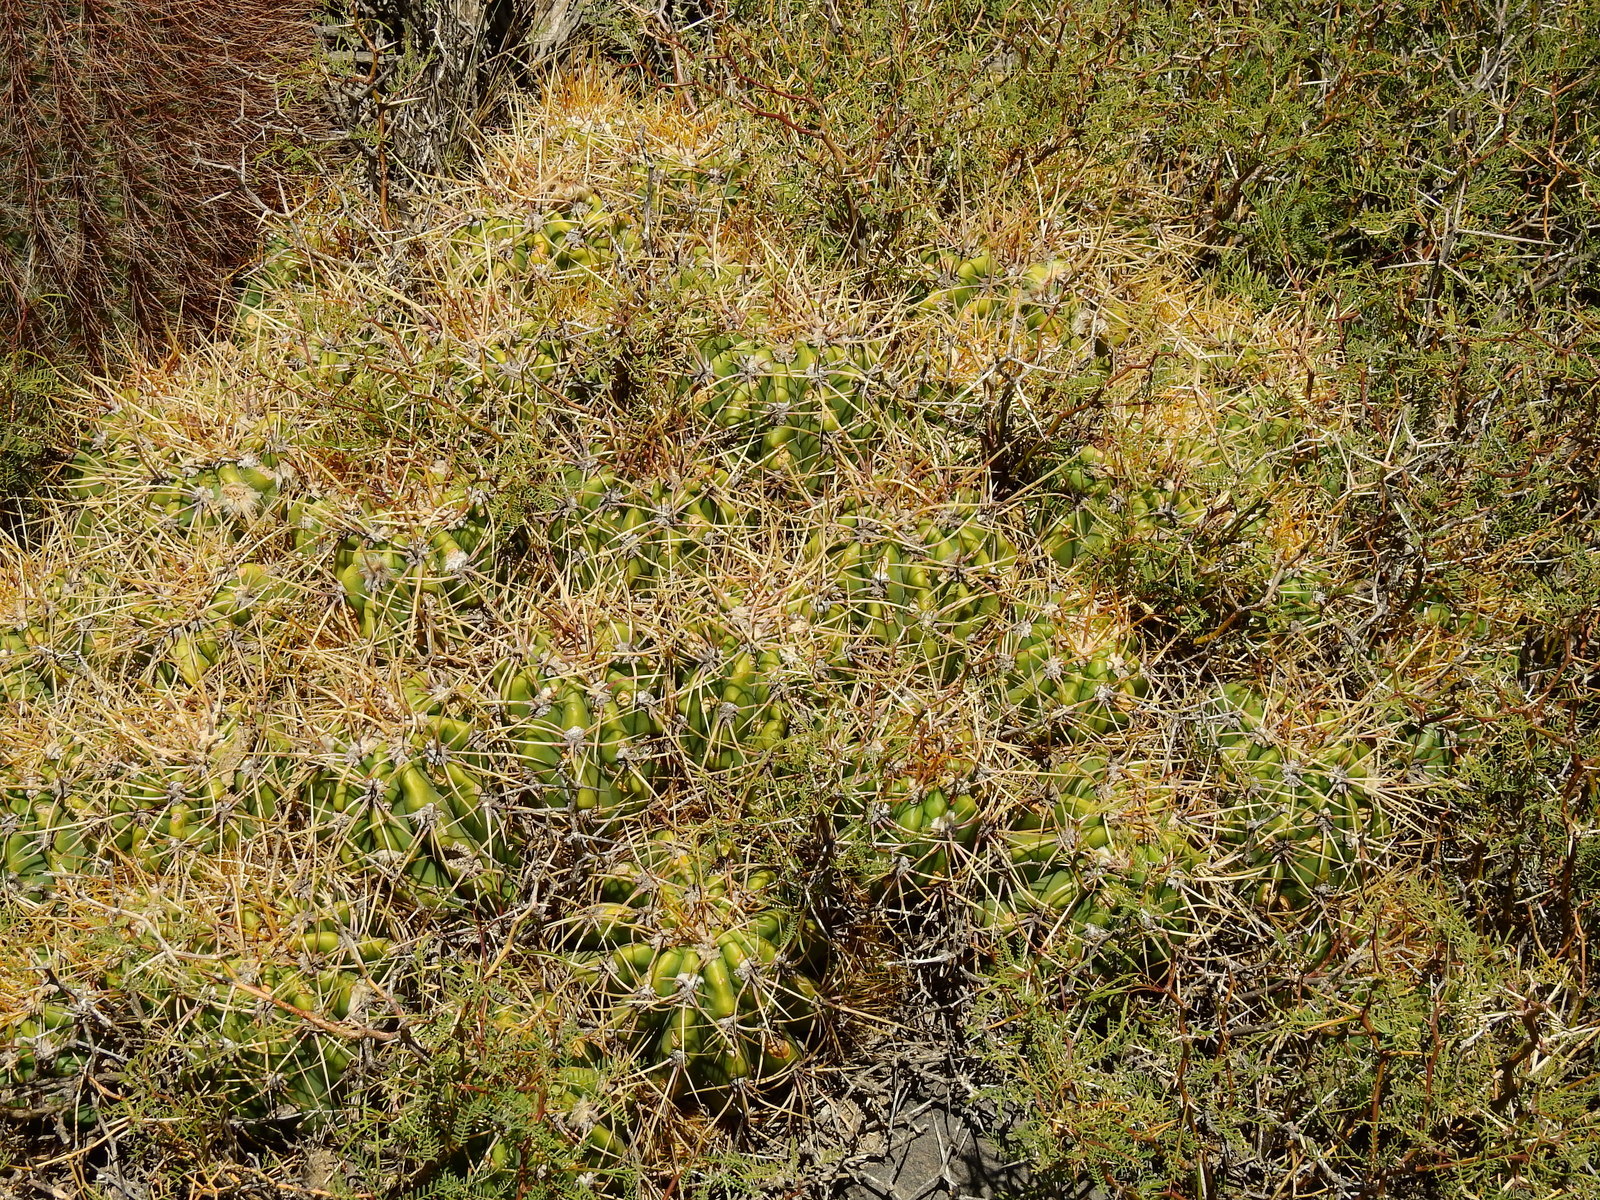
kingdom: Plantae
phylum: Tracheophyta
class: Magnoliopsida
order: Caryophyllales
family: Cactaceae
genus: Soehrensia
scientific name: Soehrensia candicans
